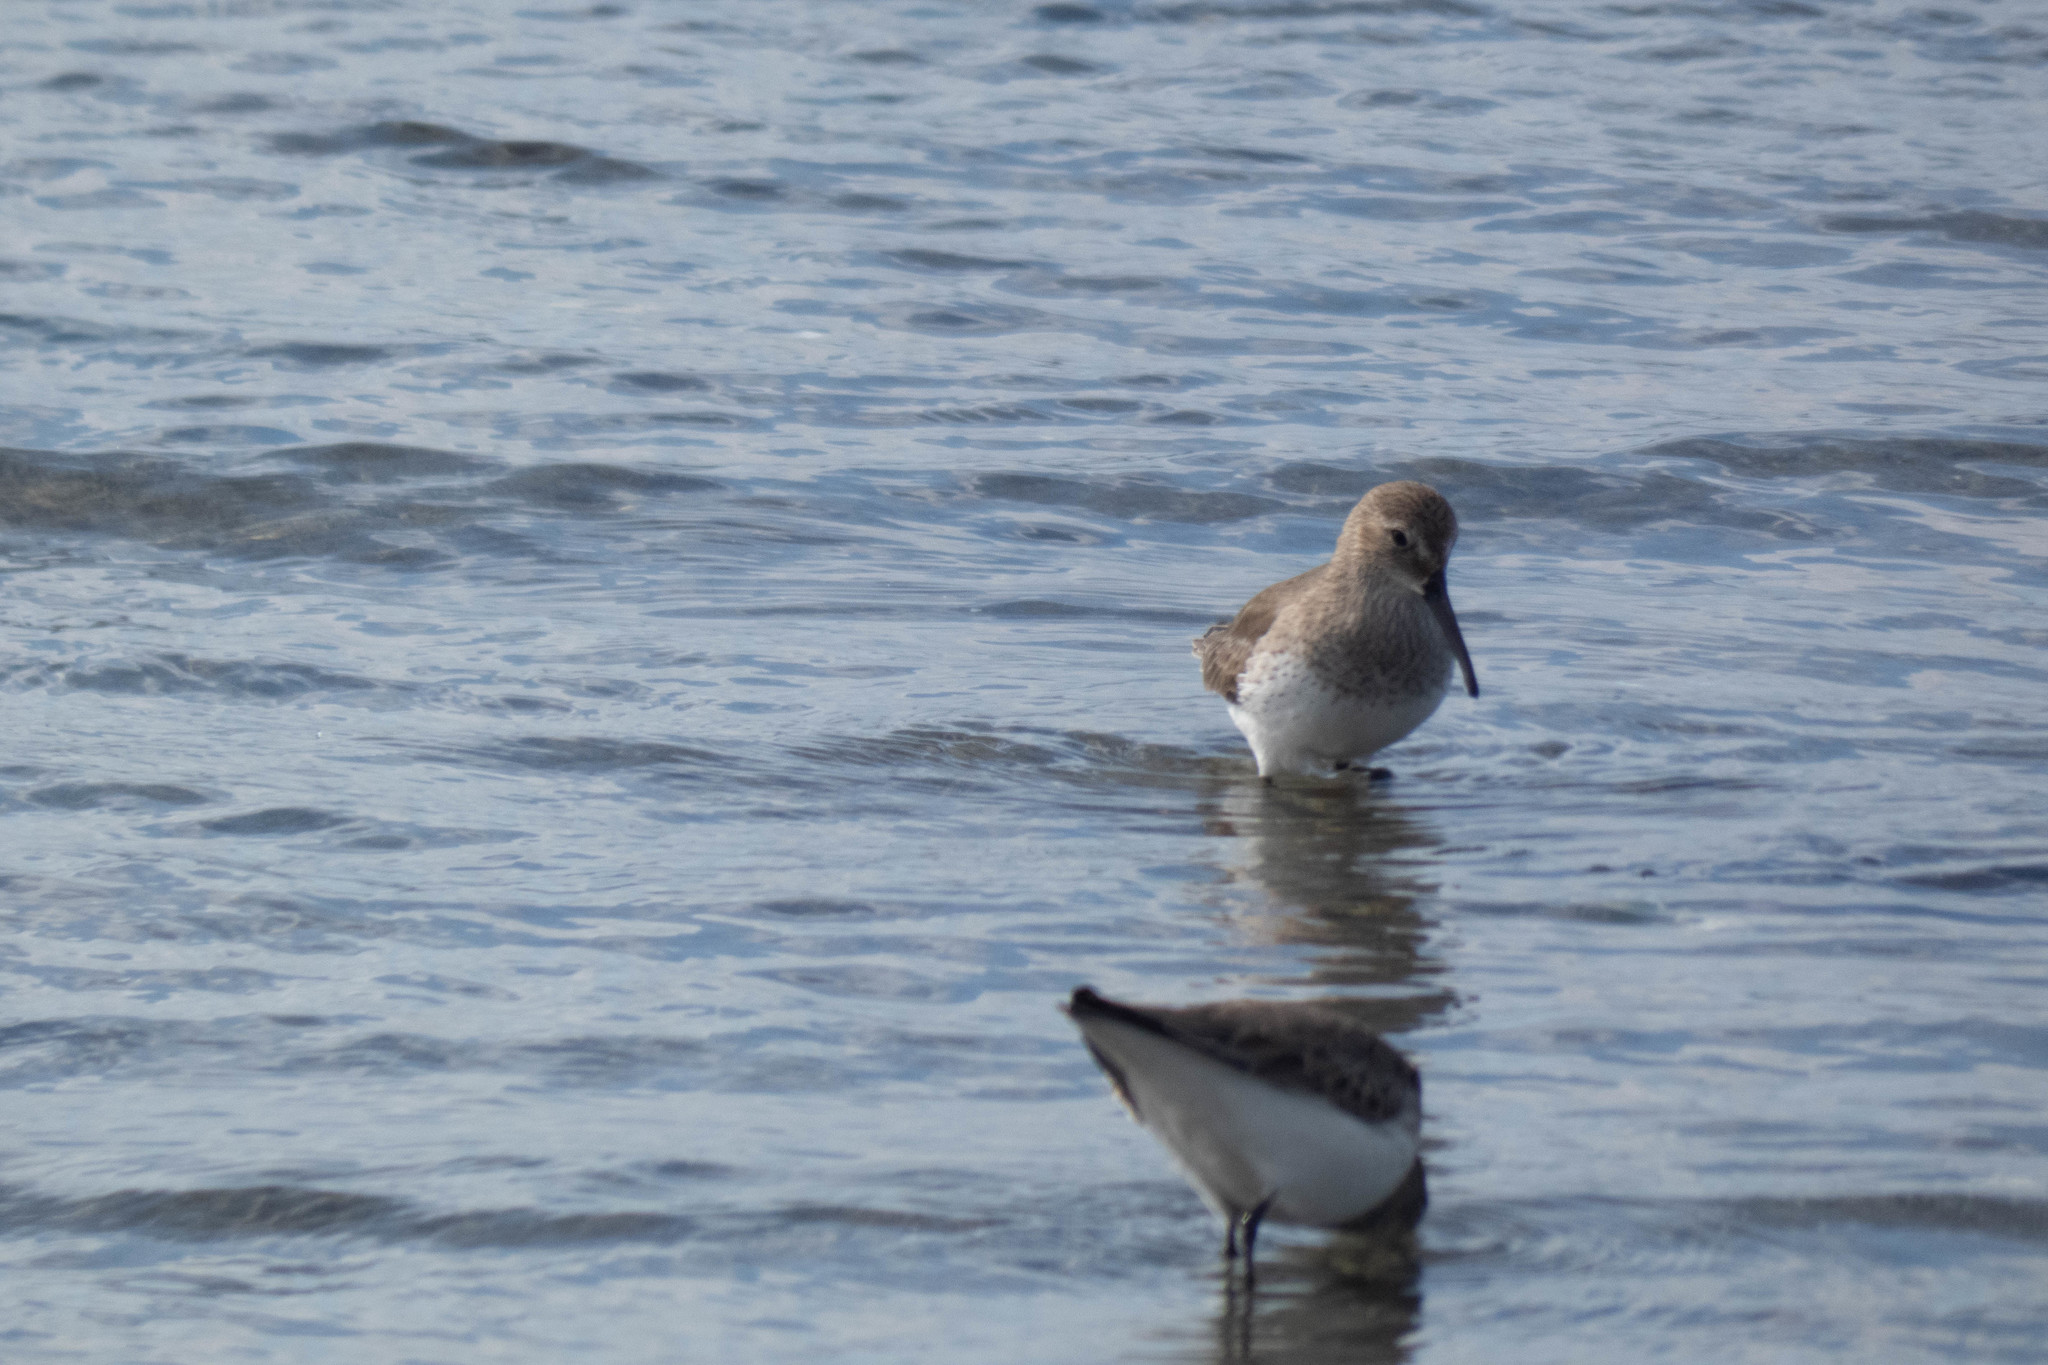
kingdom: Animalia
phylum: Chordata
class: Aves
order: Charadriiformes
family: Scolopacidae
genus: Calidris
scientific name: Calidris alpina
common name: Dunlin
